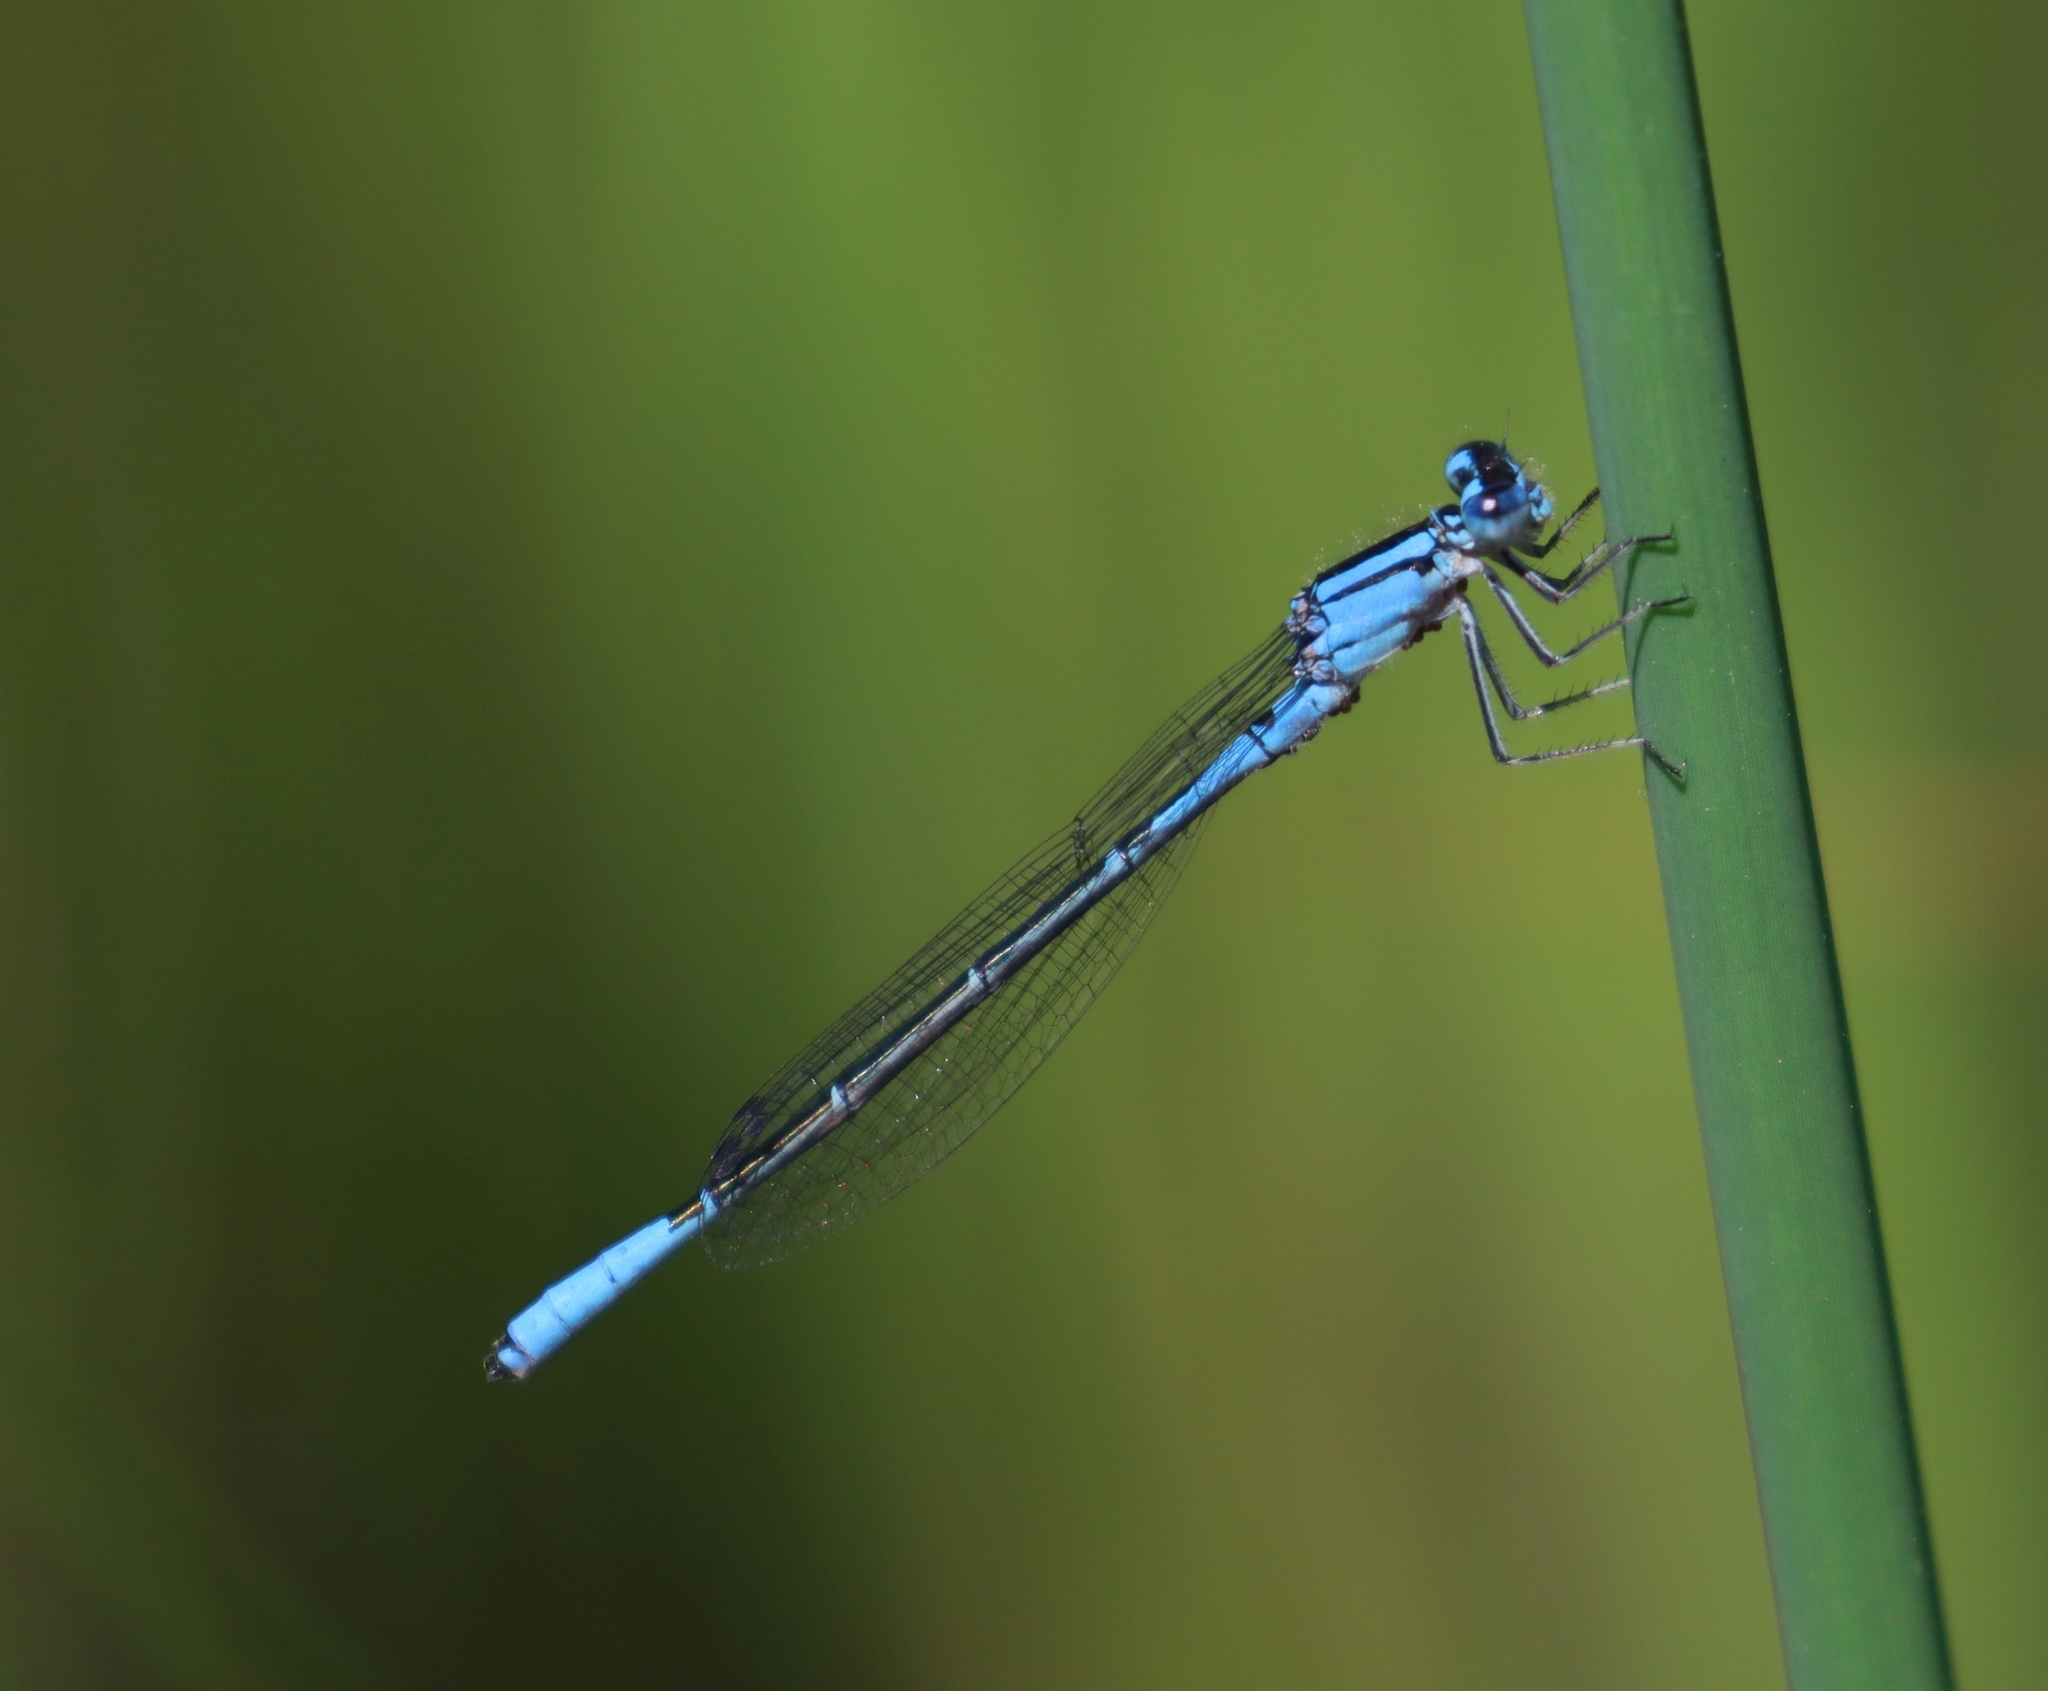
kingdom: Animalia
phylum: Arthropoda
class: Insecta
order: Odonata
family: Coenagrionidae
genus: Enallagma
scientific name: Enallagma aspersum
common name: Azure bluet
